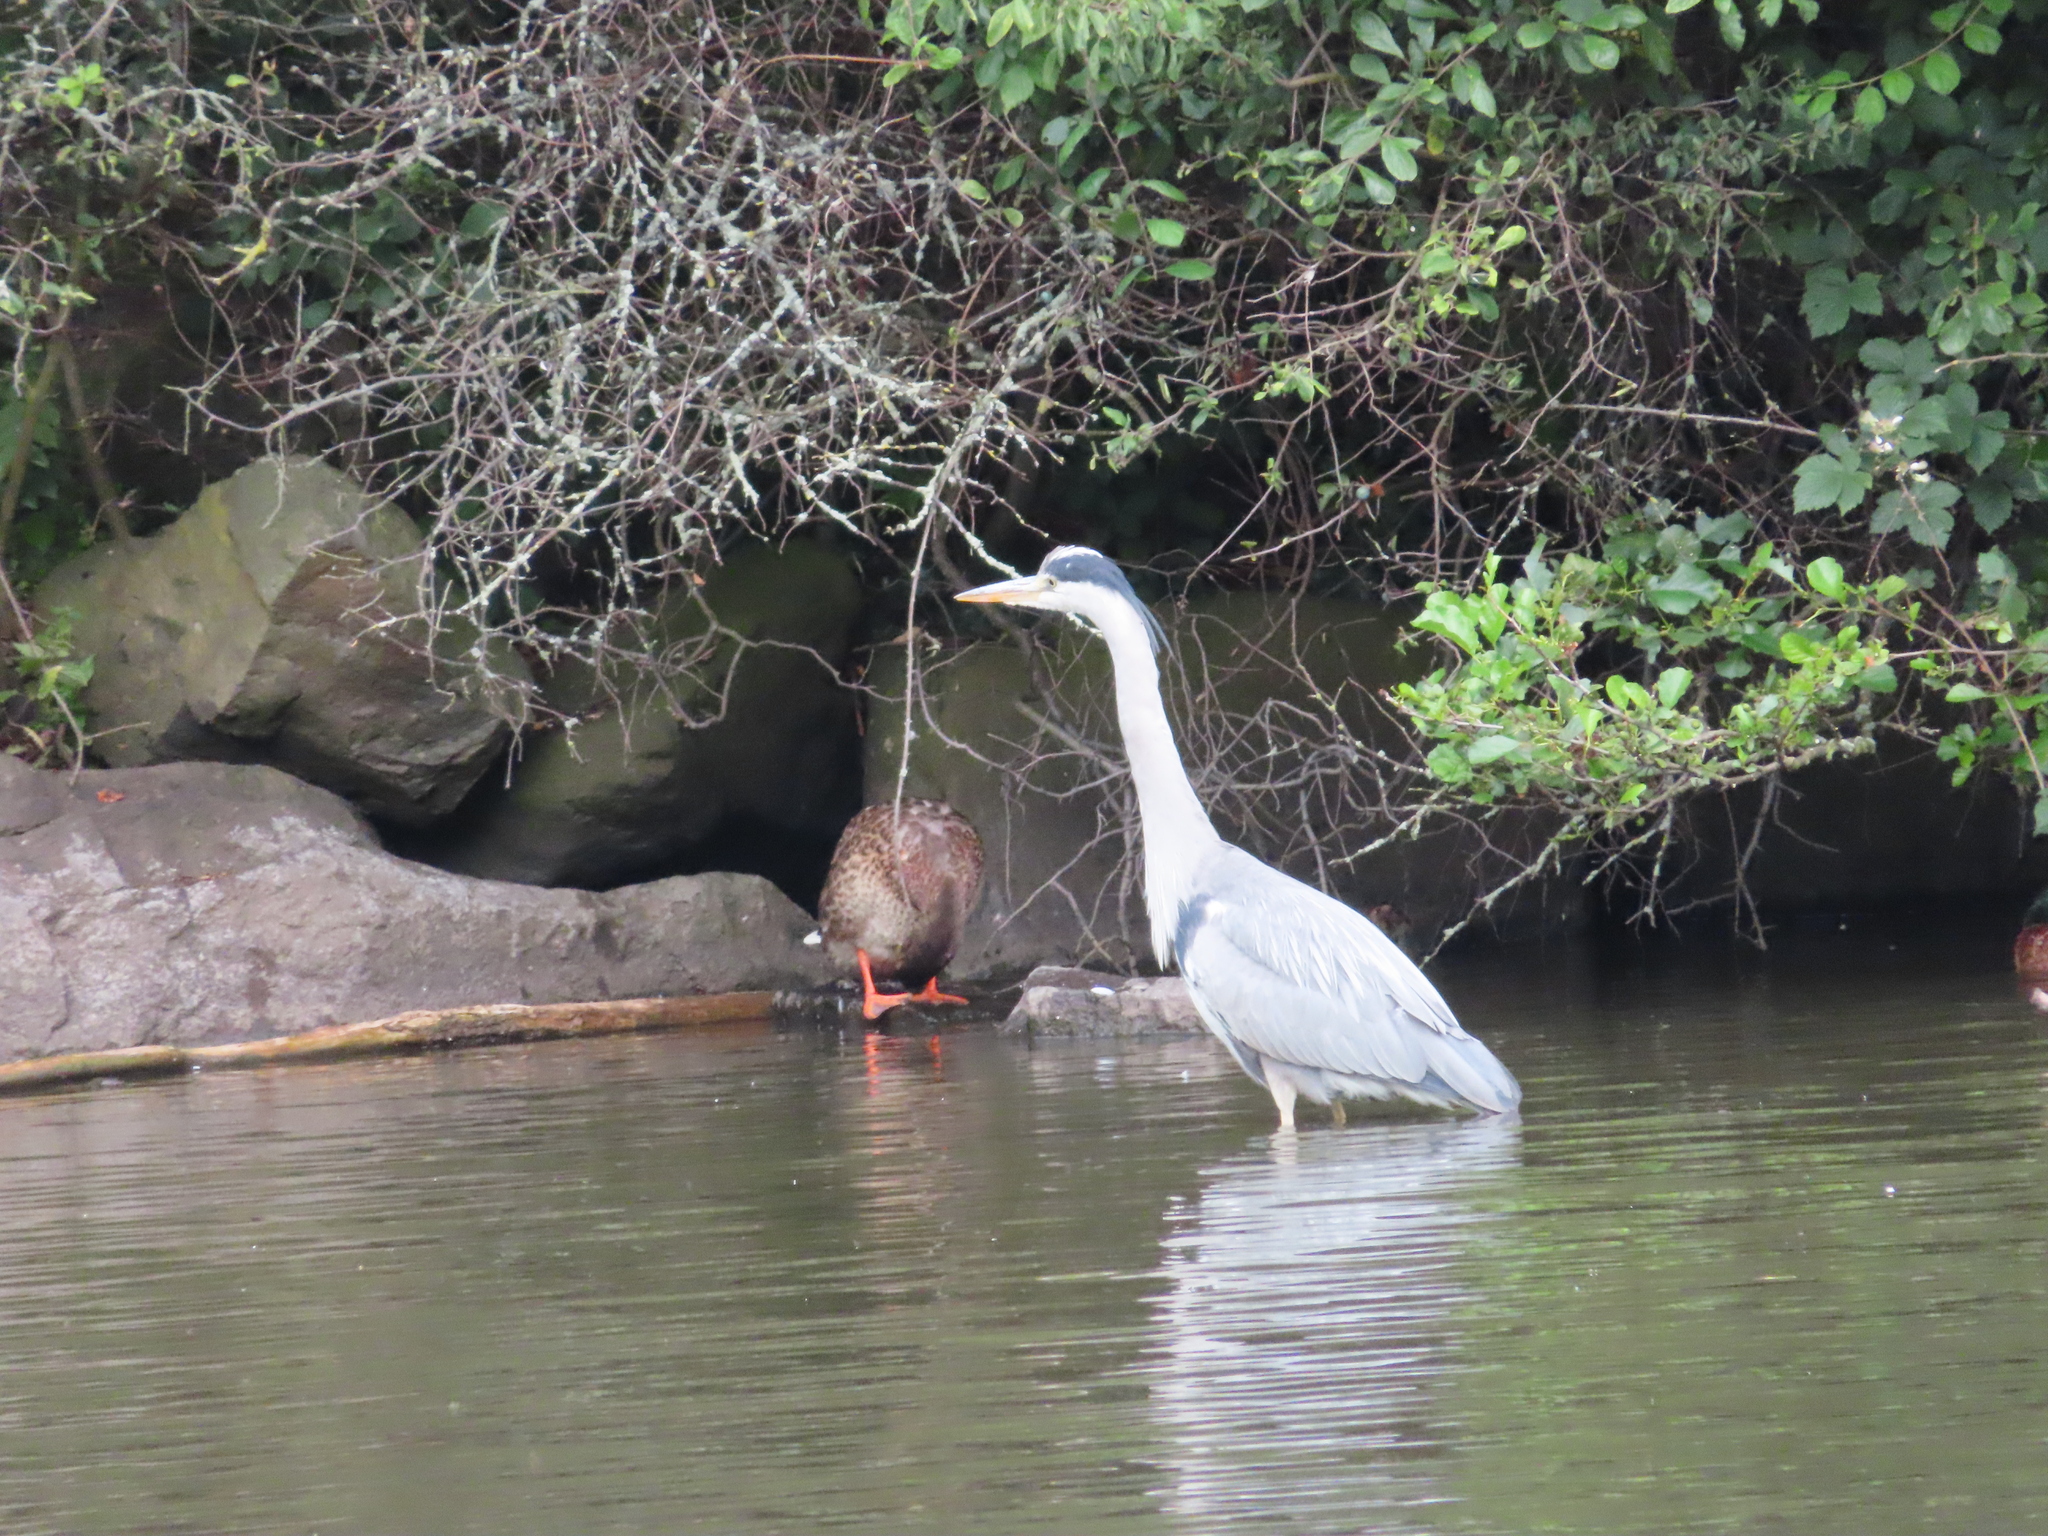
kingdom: Animalia
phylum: Chordata
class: Aves
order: Pelecaniformes
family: Ardeidae
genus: Ardea
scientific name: Ardea cinerea
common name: Grey heron
